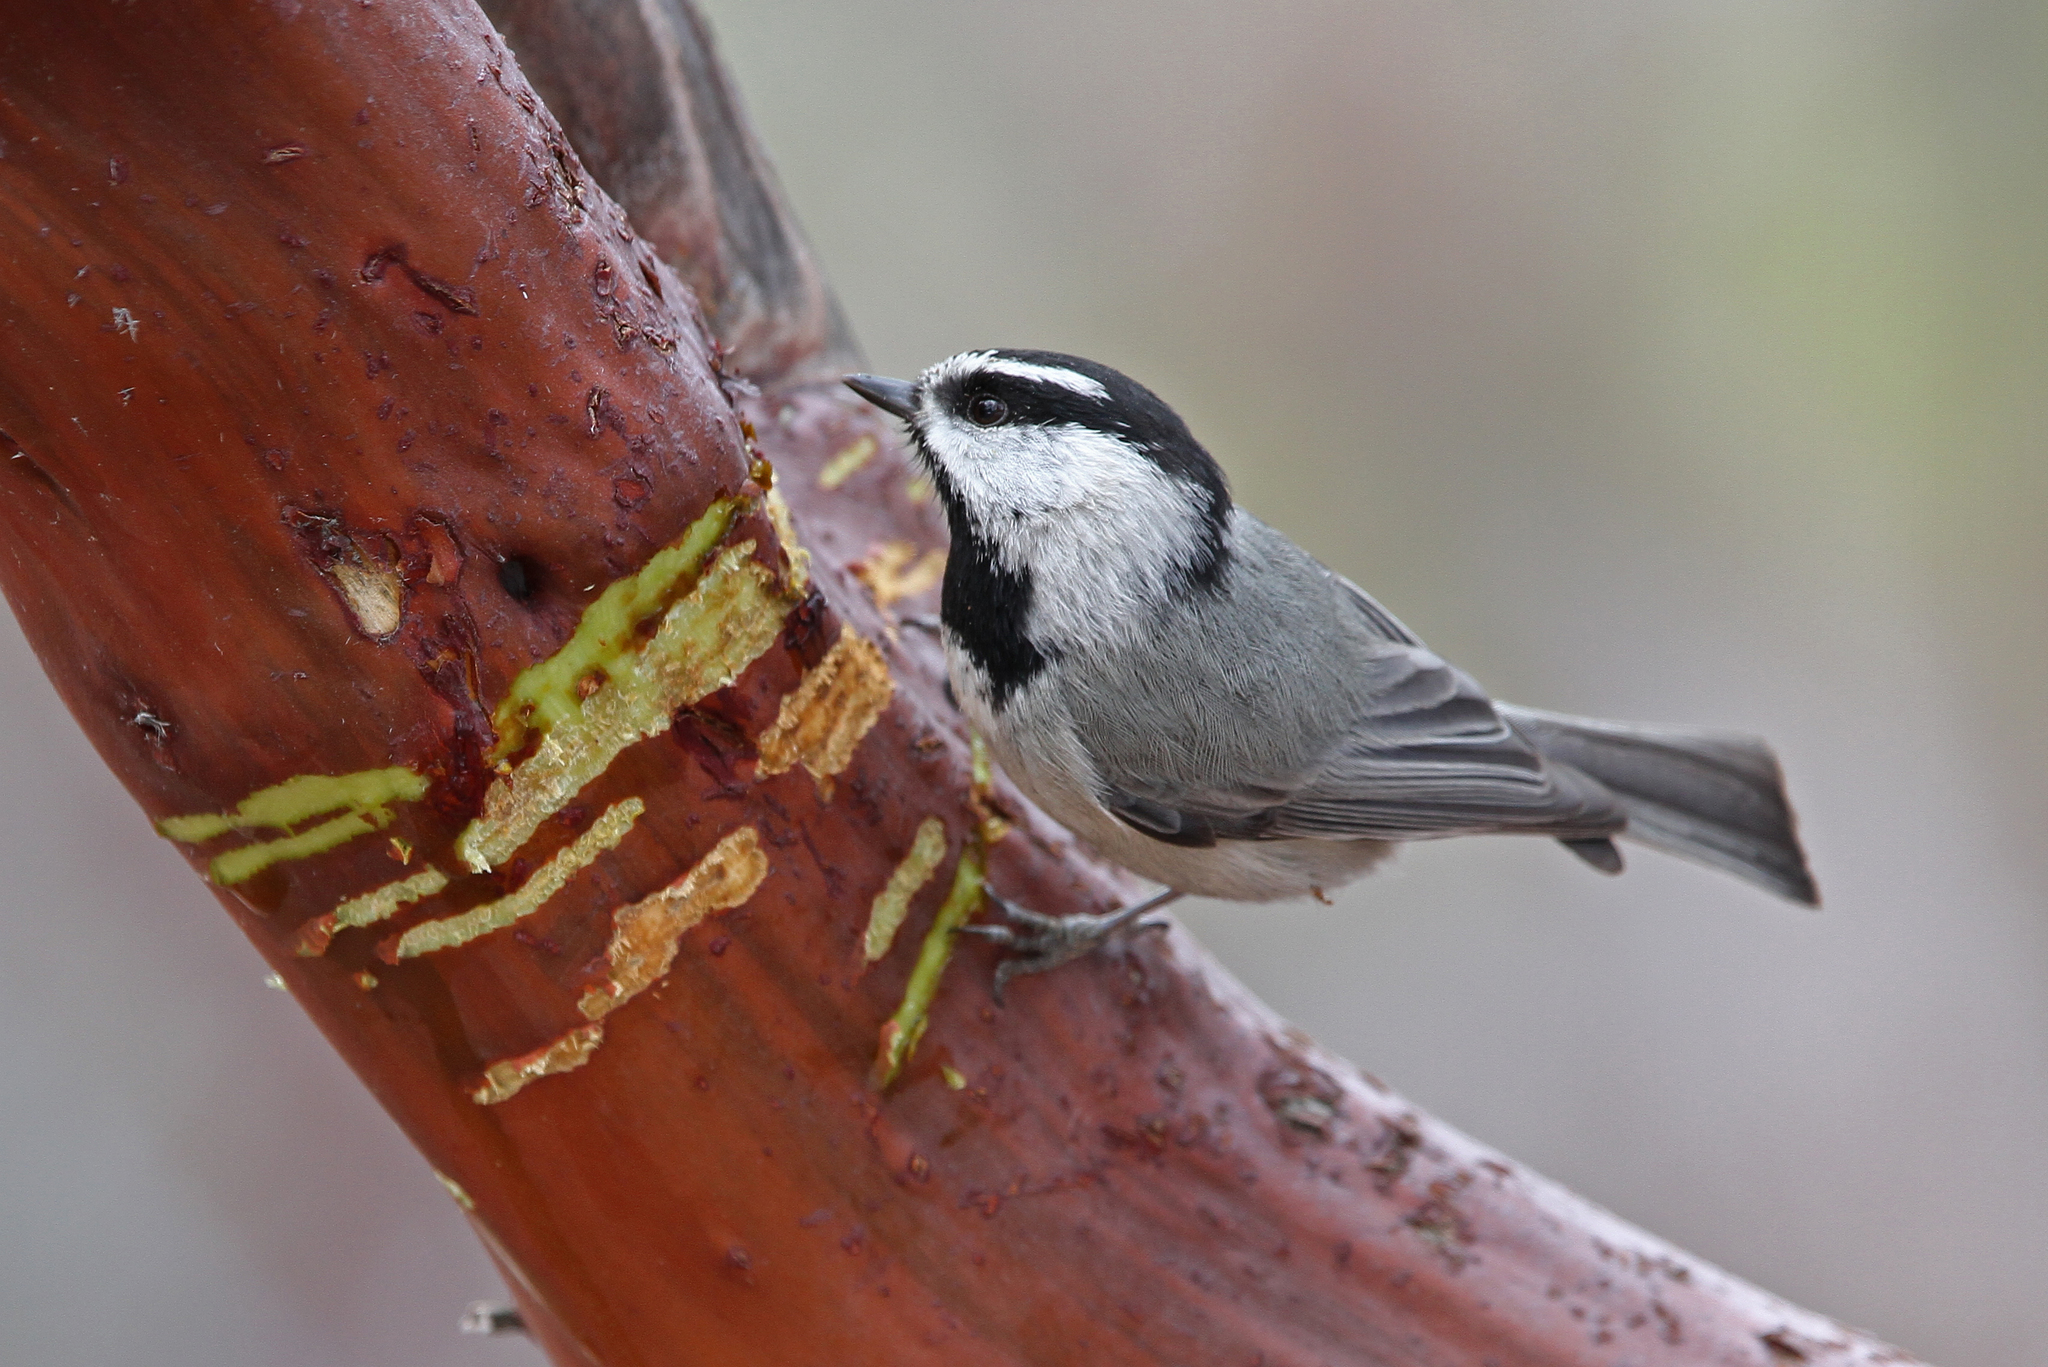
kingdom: Animalia
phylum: Chordata
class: Aves
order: Passeriformes
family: Paridae
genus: Poecile
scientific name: Poecile gambeli
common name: Mountain chickadee
